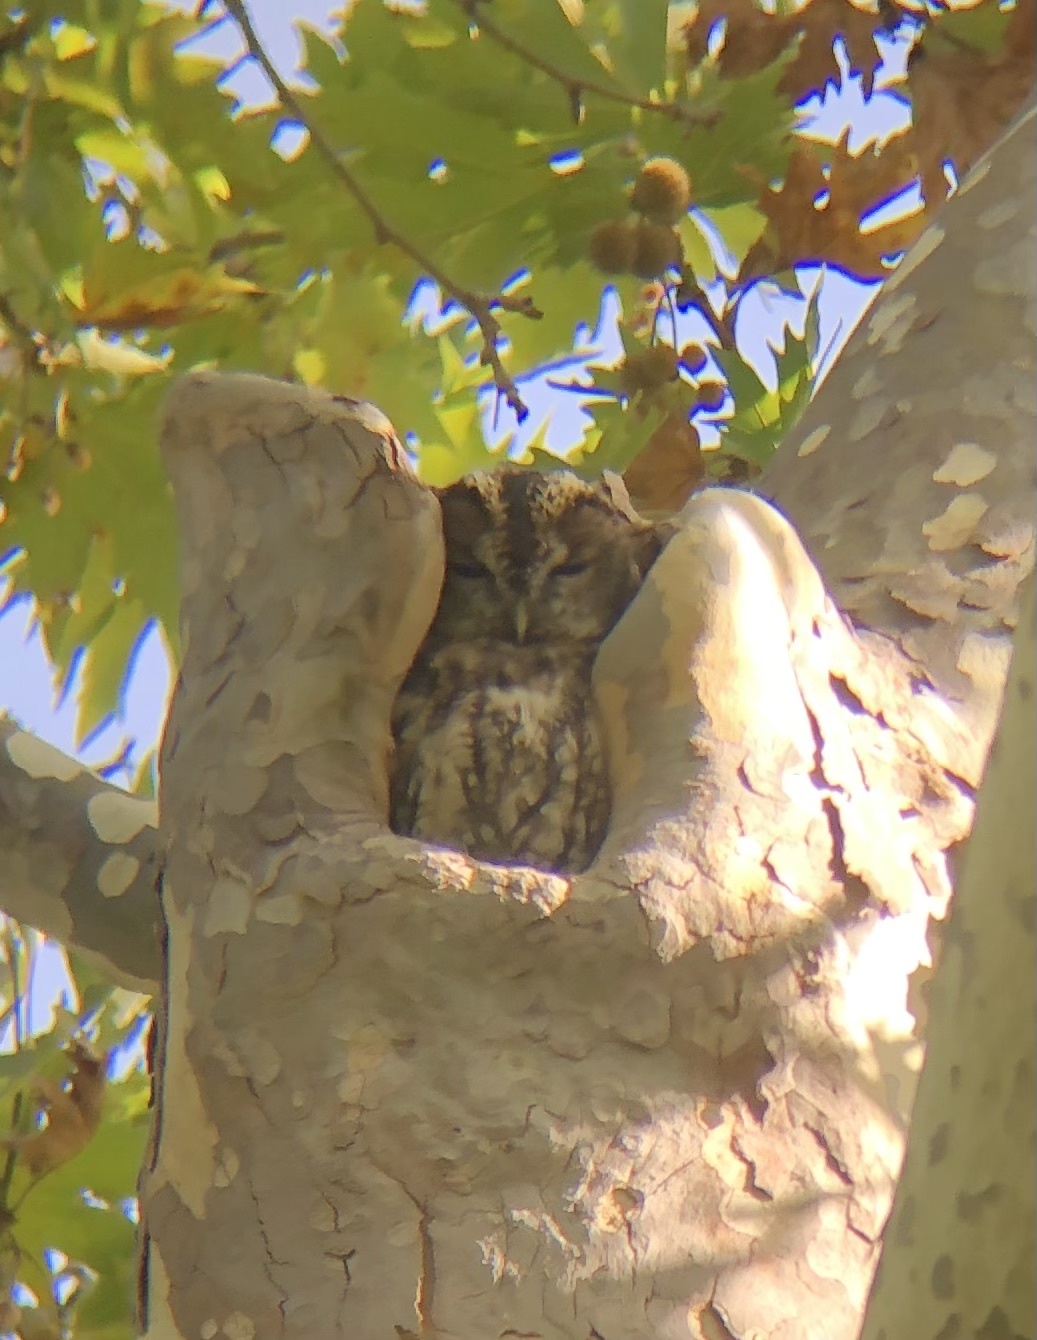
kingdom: Animalia
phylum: Chordata
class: Aves
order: Strigiformes
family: Strigidae
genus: Strix
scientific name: Strix aluco
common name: Tawny owl
